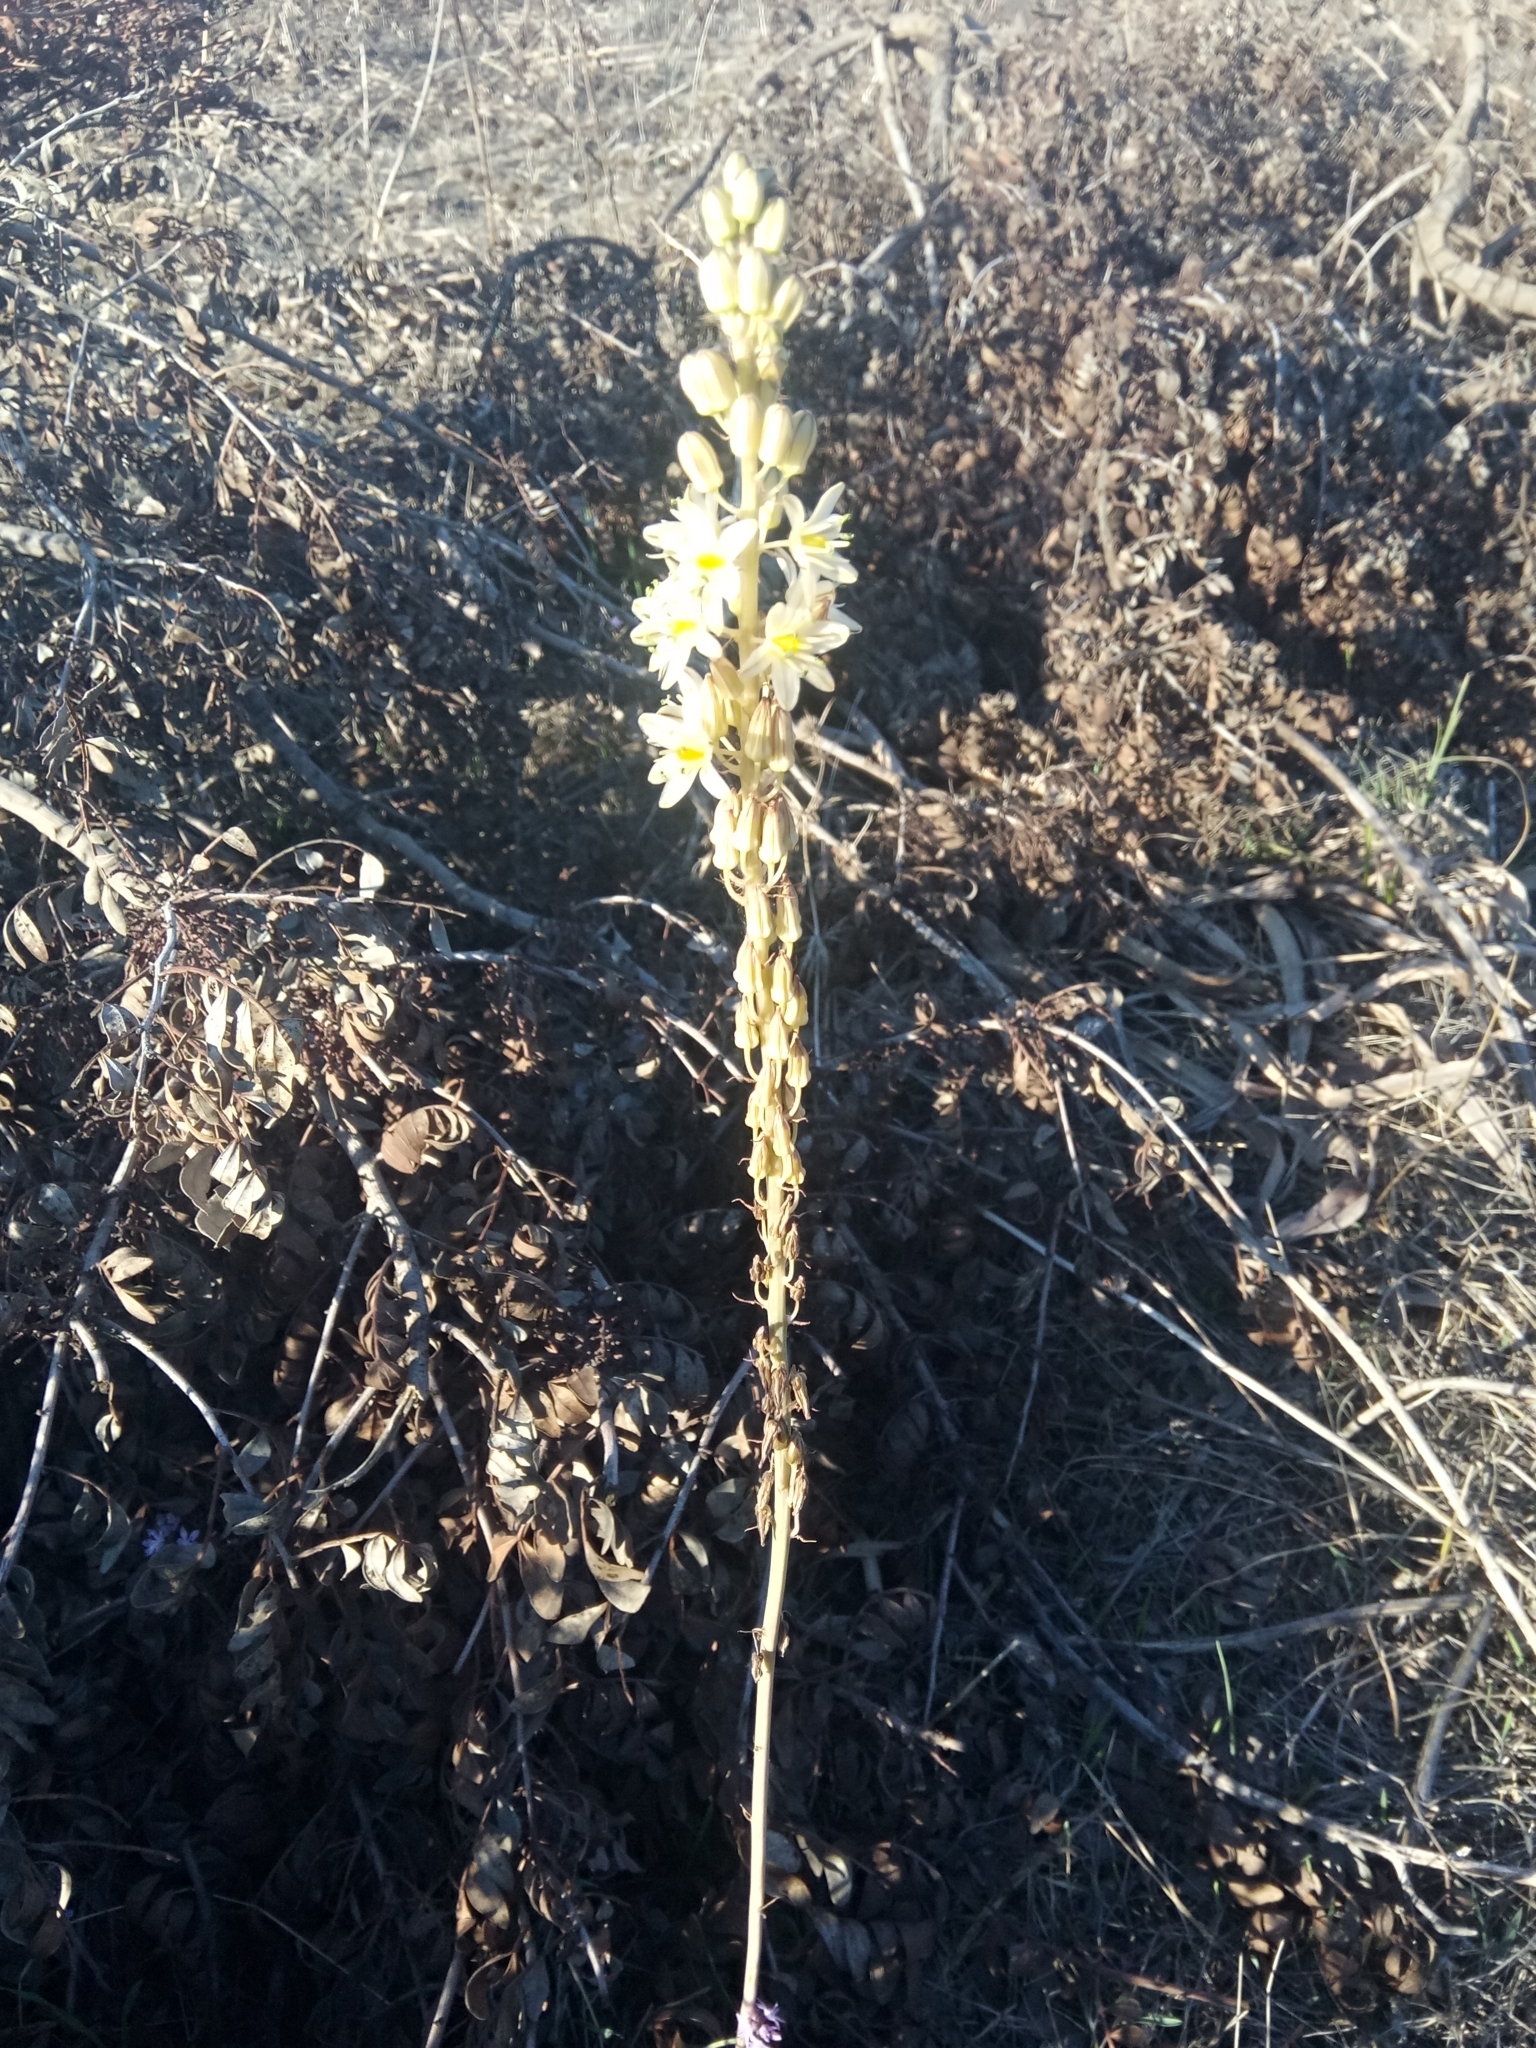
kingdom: Plantae
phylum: Tracheophyta
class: Liliopsida
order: Asparagales
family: Asparagaceae
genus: Drimia
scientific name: Drimia anthericoides
